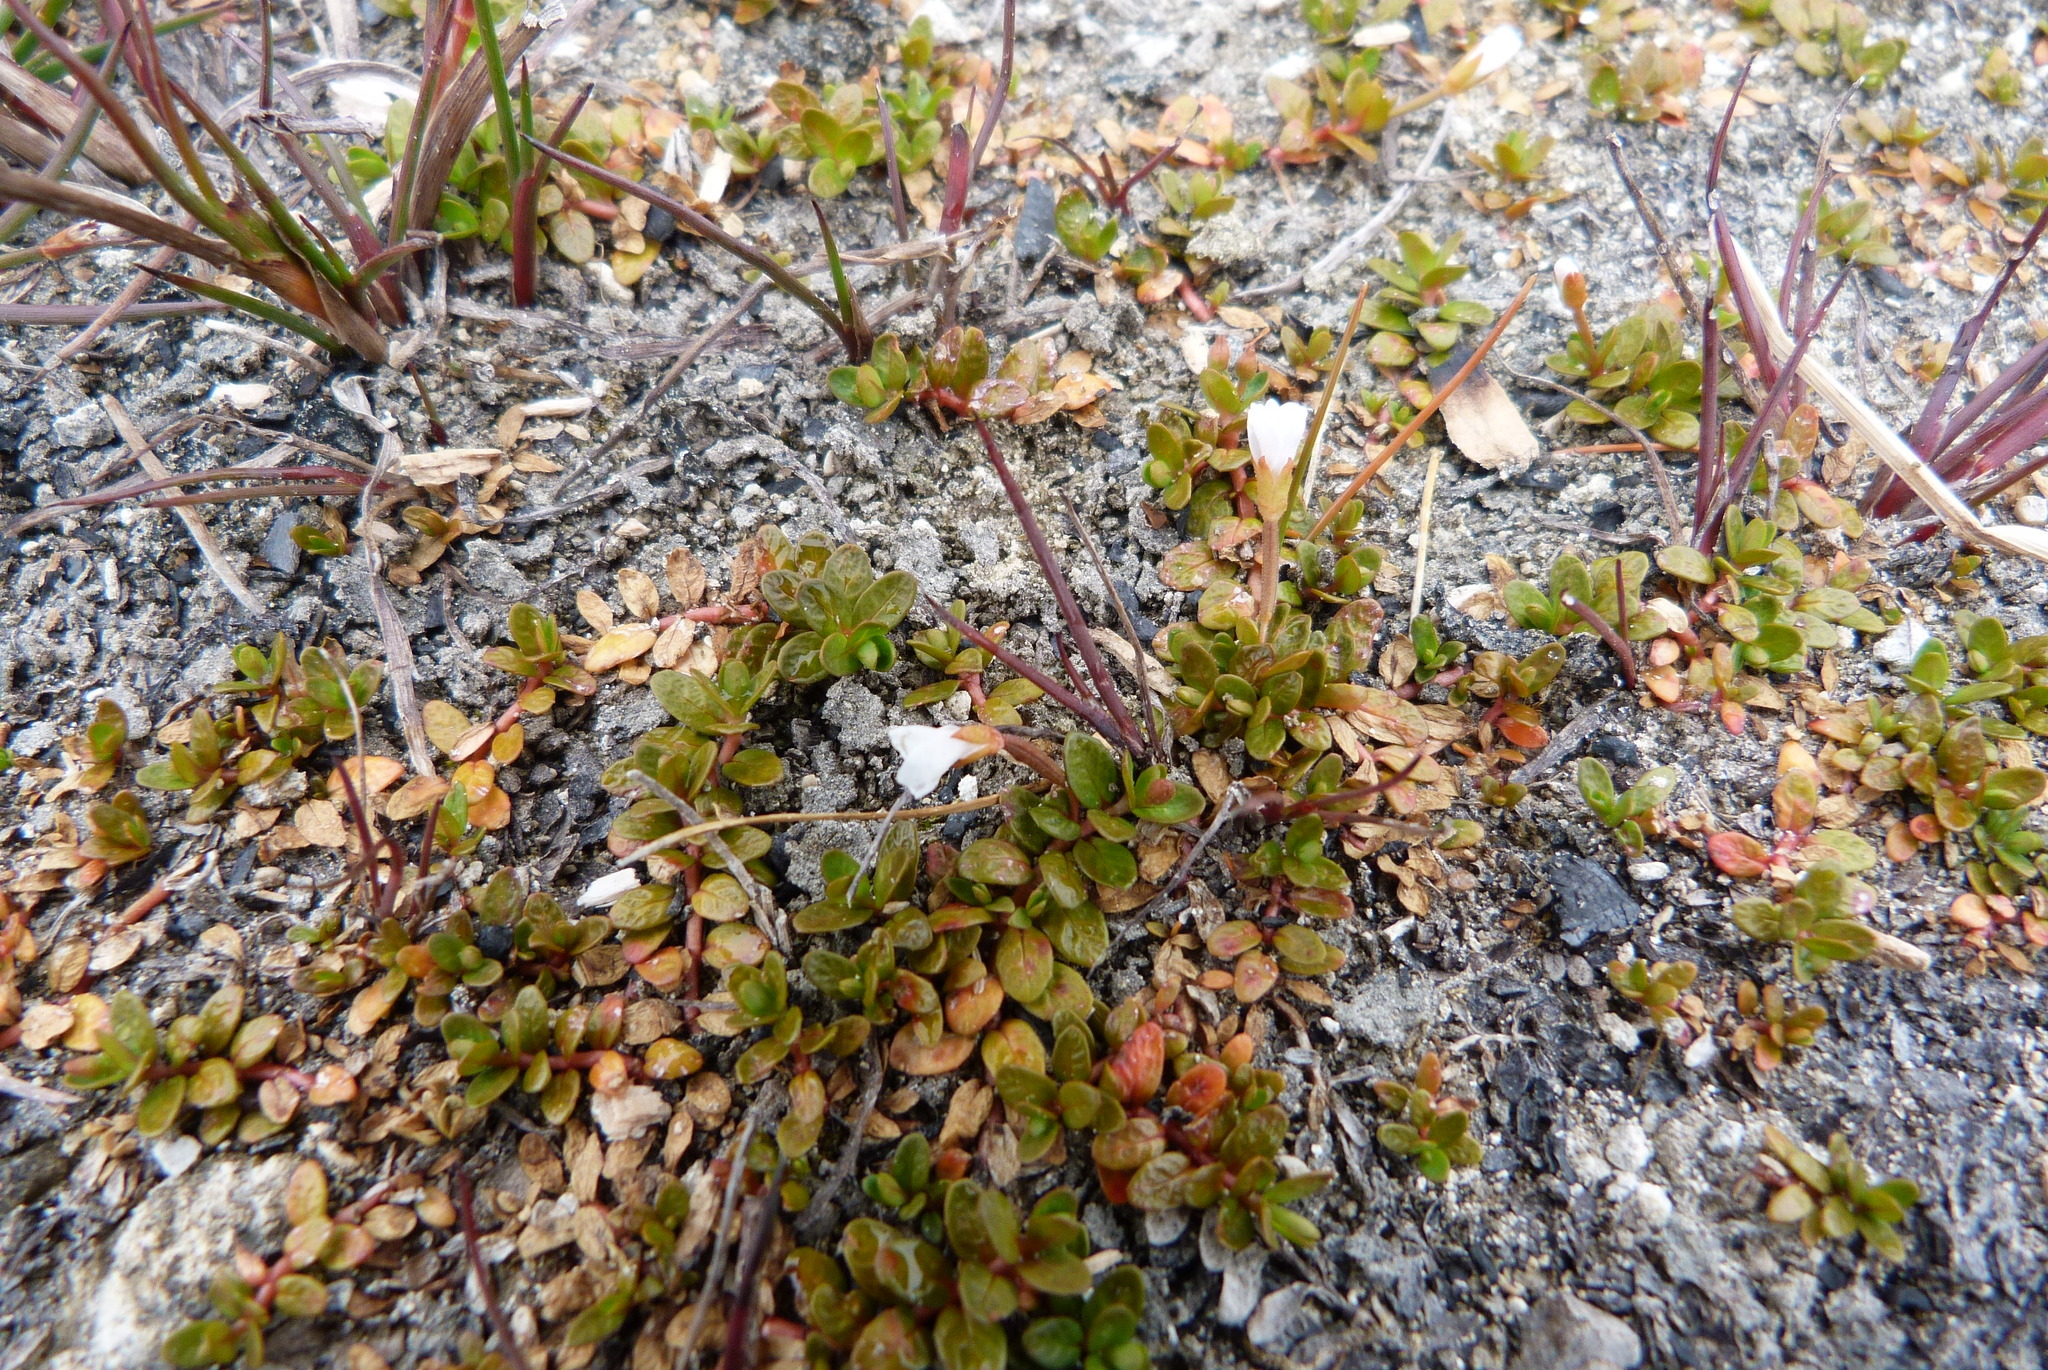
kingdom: Plantae
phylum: Tracheophyta
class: Magnoliopsida
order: Myrtales
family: Onagraceae
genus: Epilobium
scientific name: Epilobium angustum
